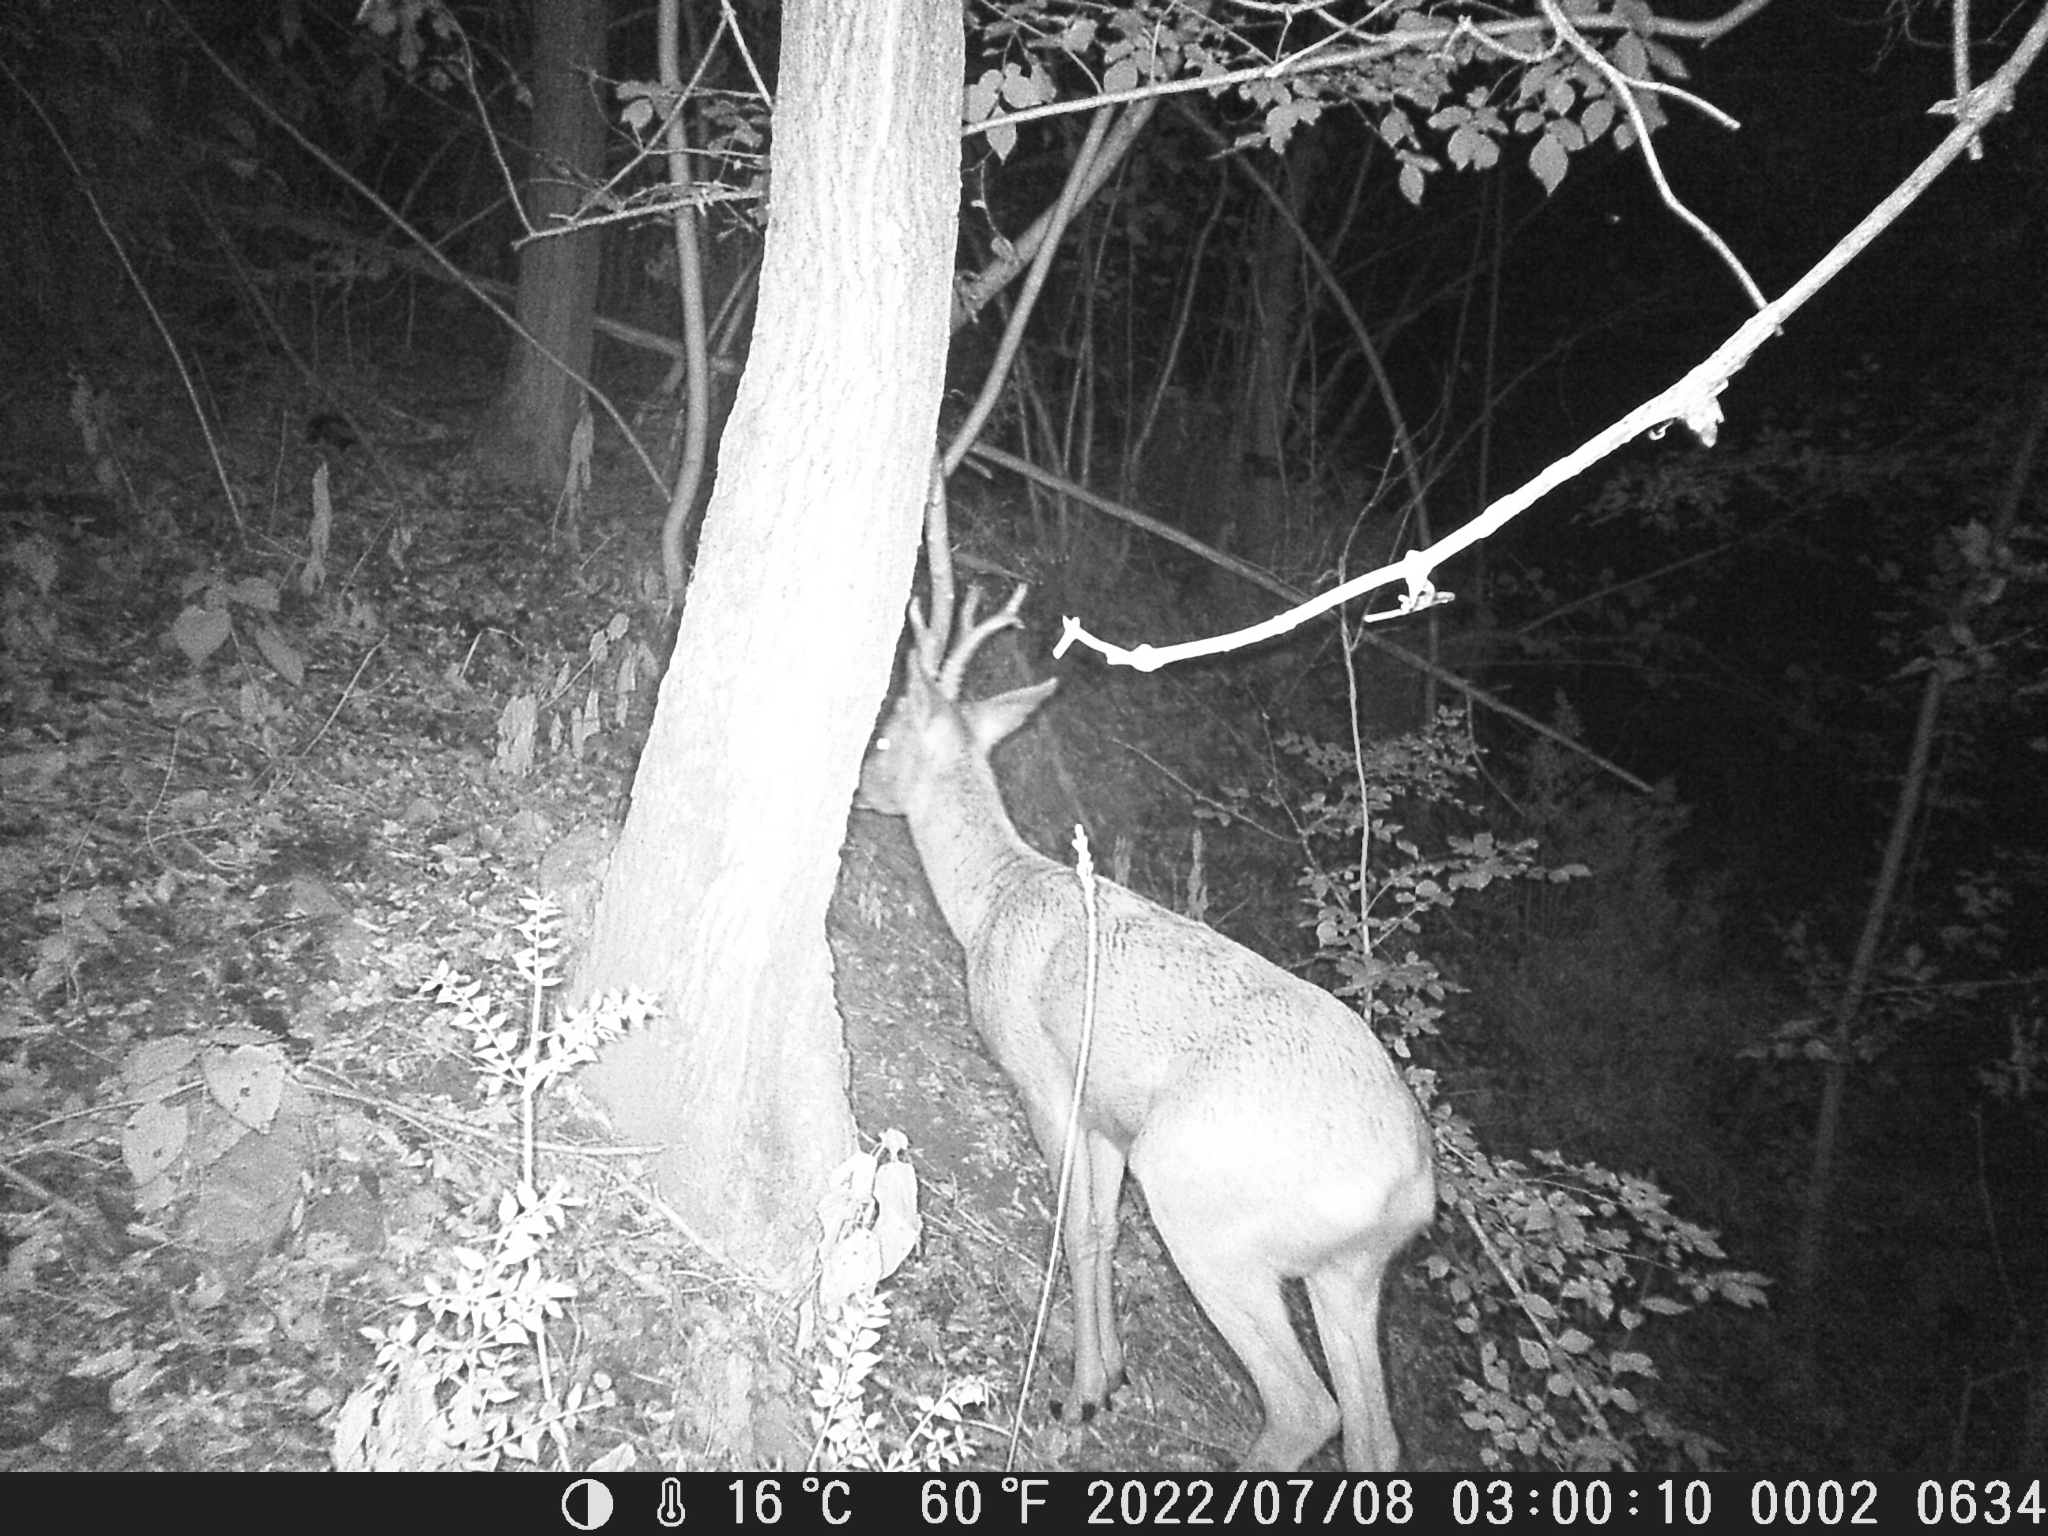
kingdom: Animalia
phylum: Chordata
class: Mammalia
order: Artiodactyla
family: Cervidae
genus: Capreolus
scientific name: Capreolus capreolus
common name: Western roe deer
